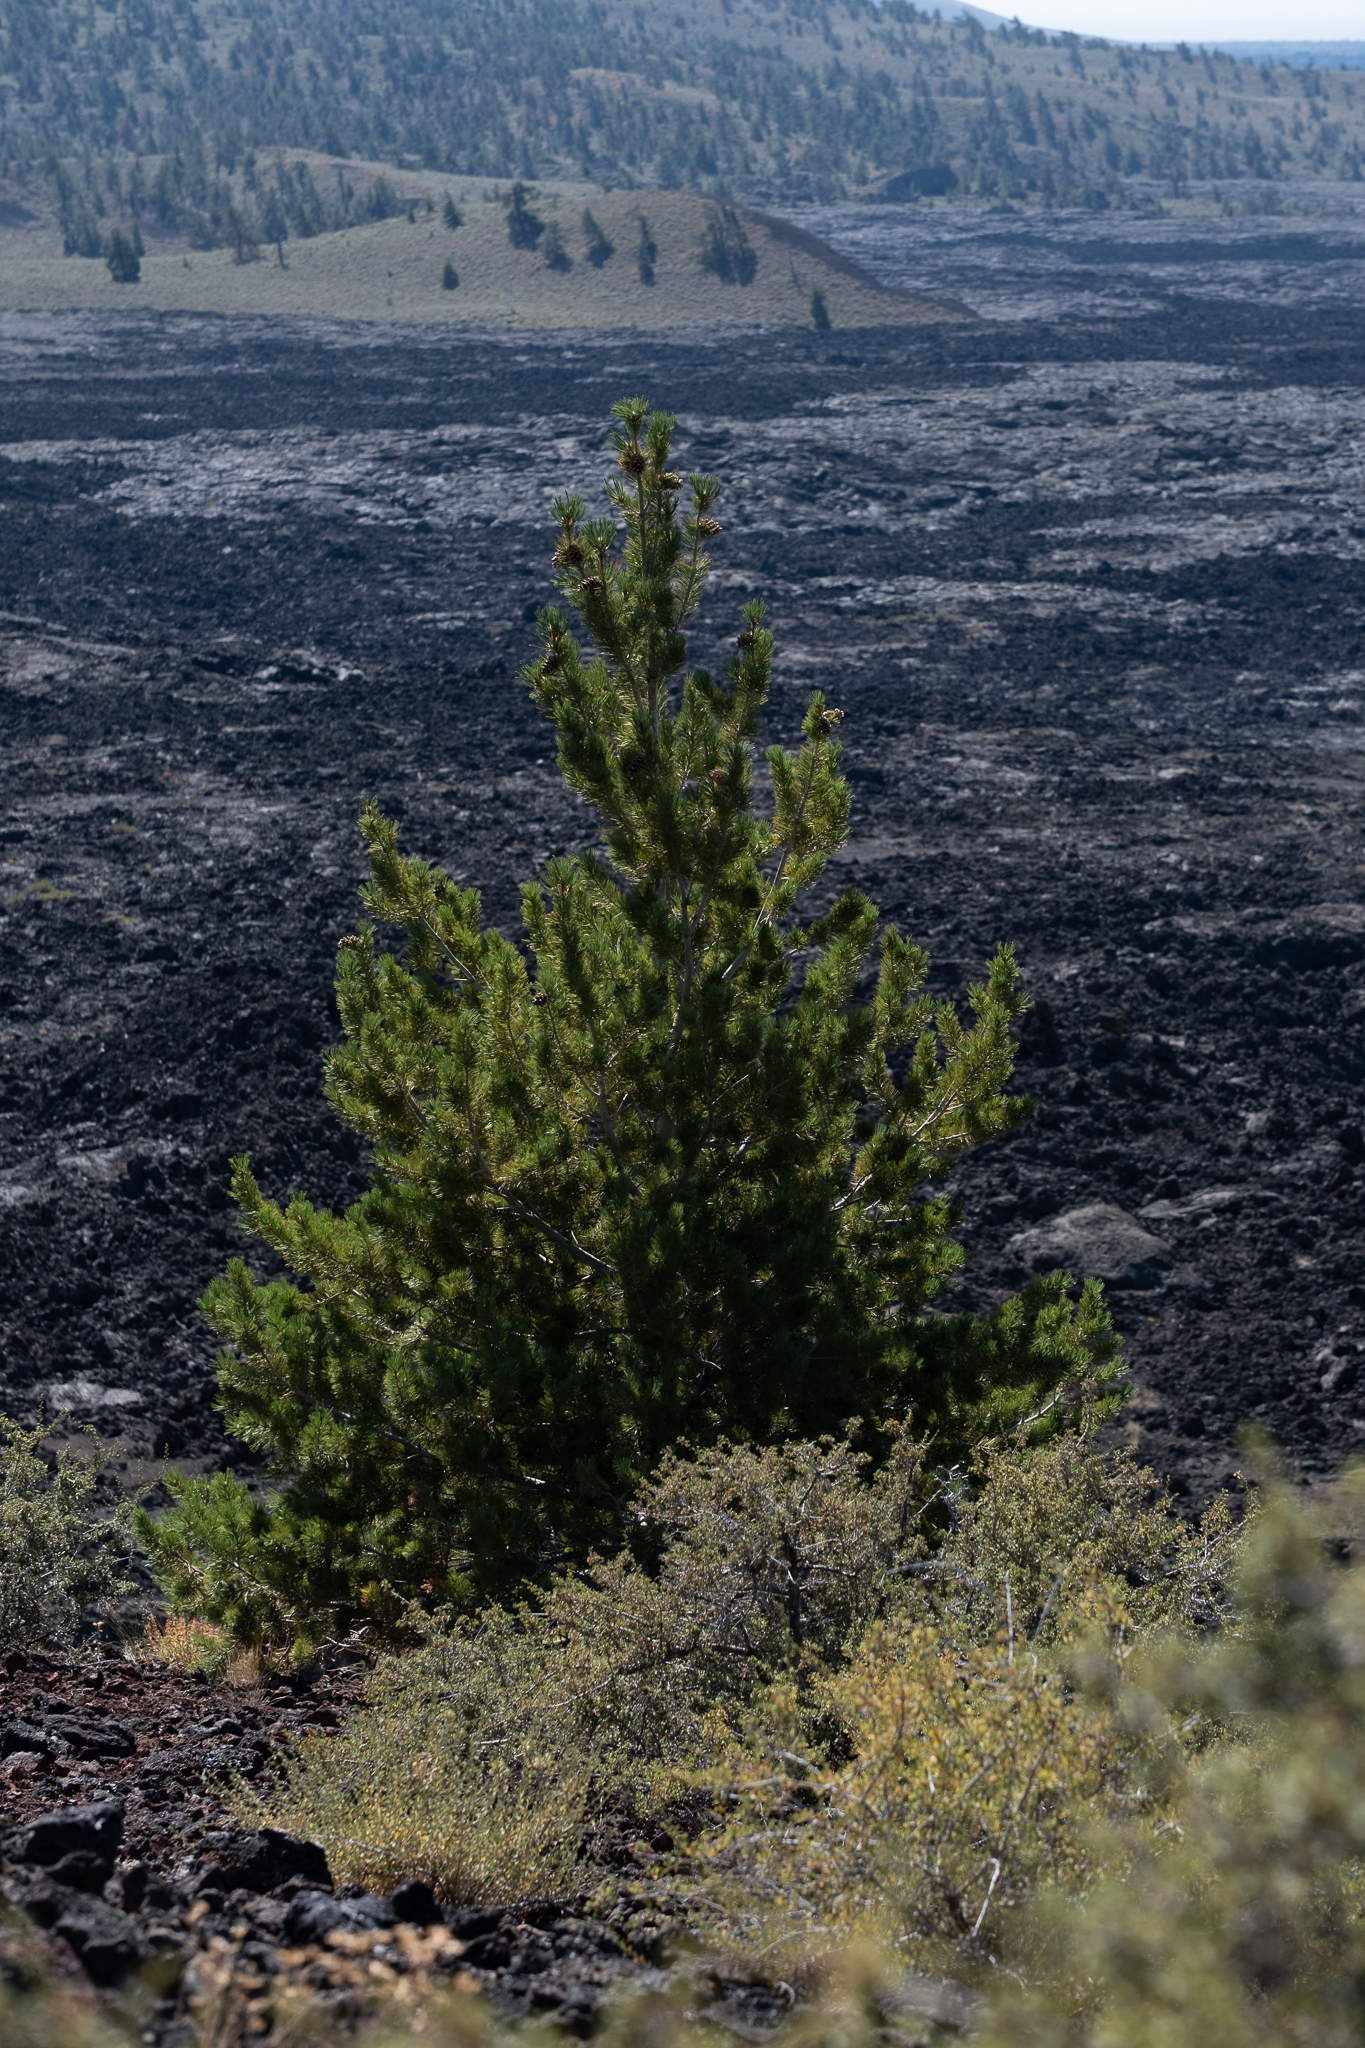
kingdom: Plantae
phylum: Tracheophyta
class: Pinopsida
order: Pinales
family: Pinaceae
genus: Pinus
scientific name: Pinus flexilis
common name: Limber pine
